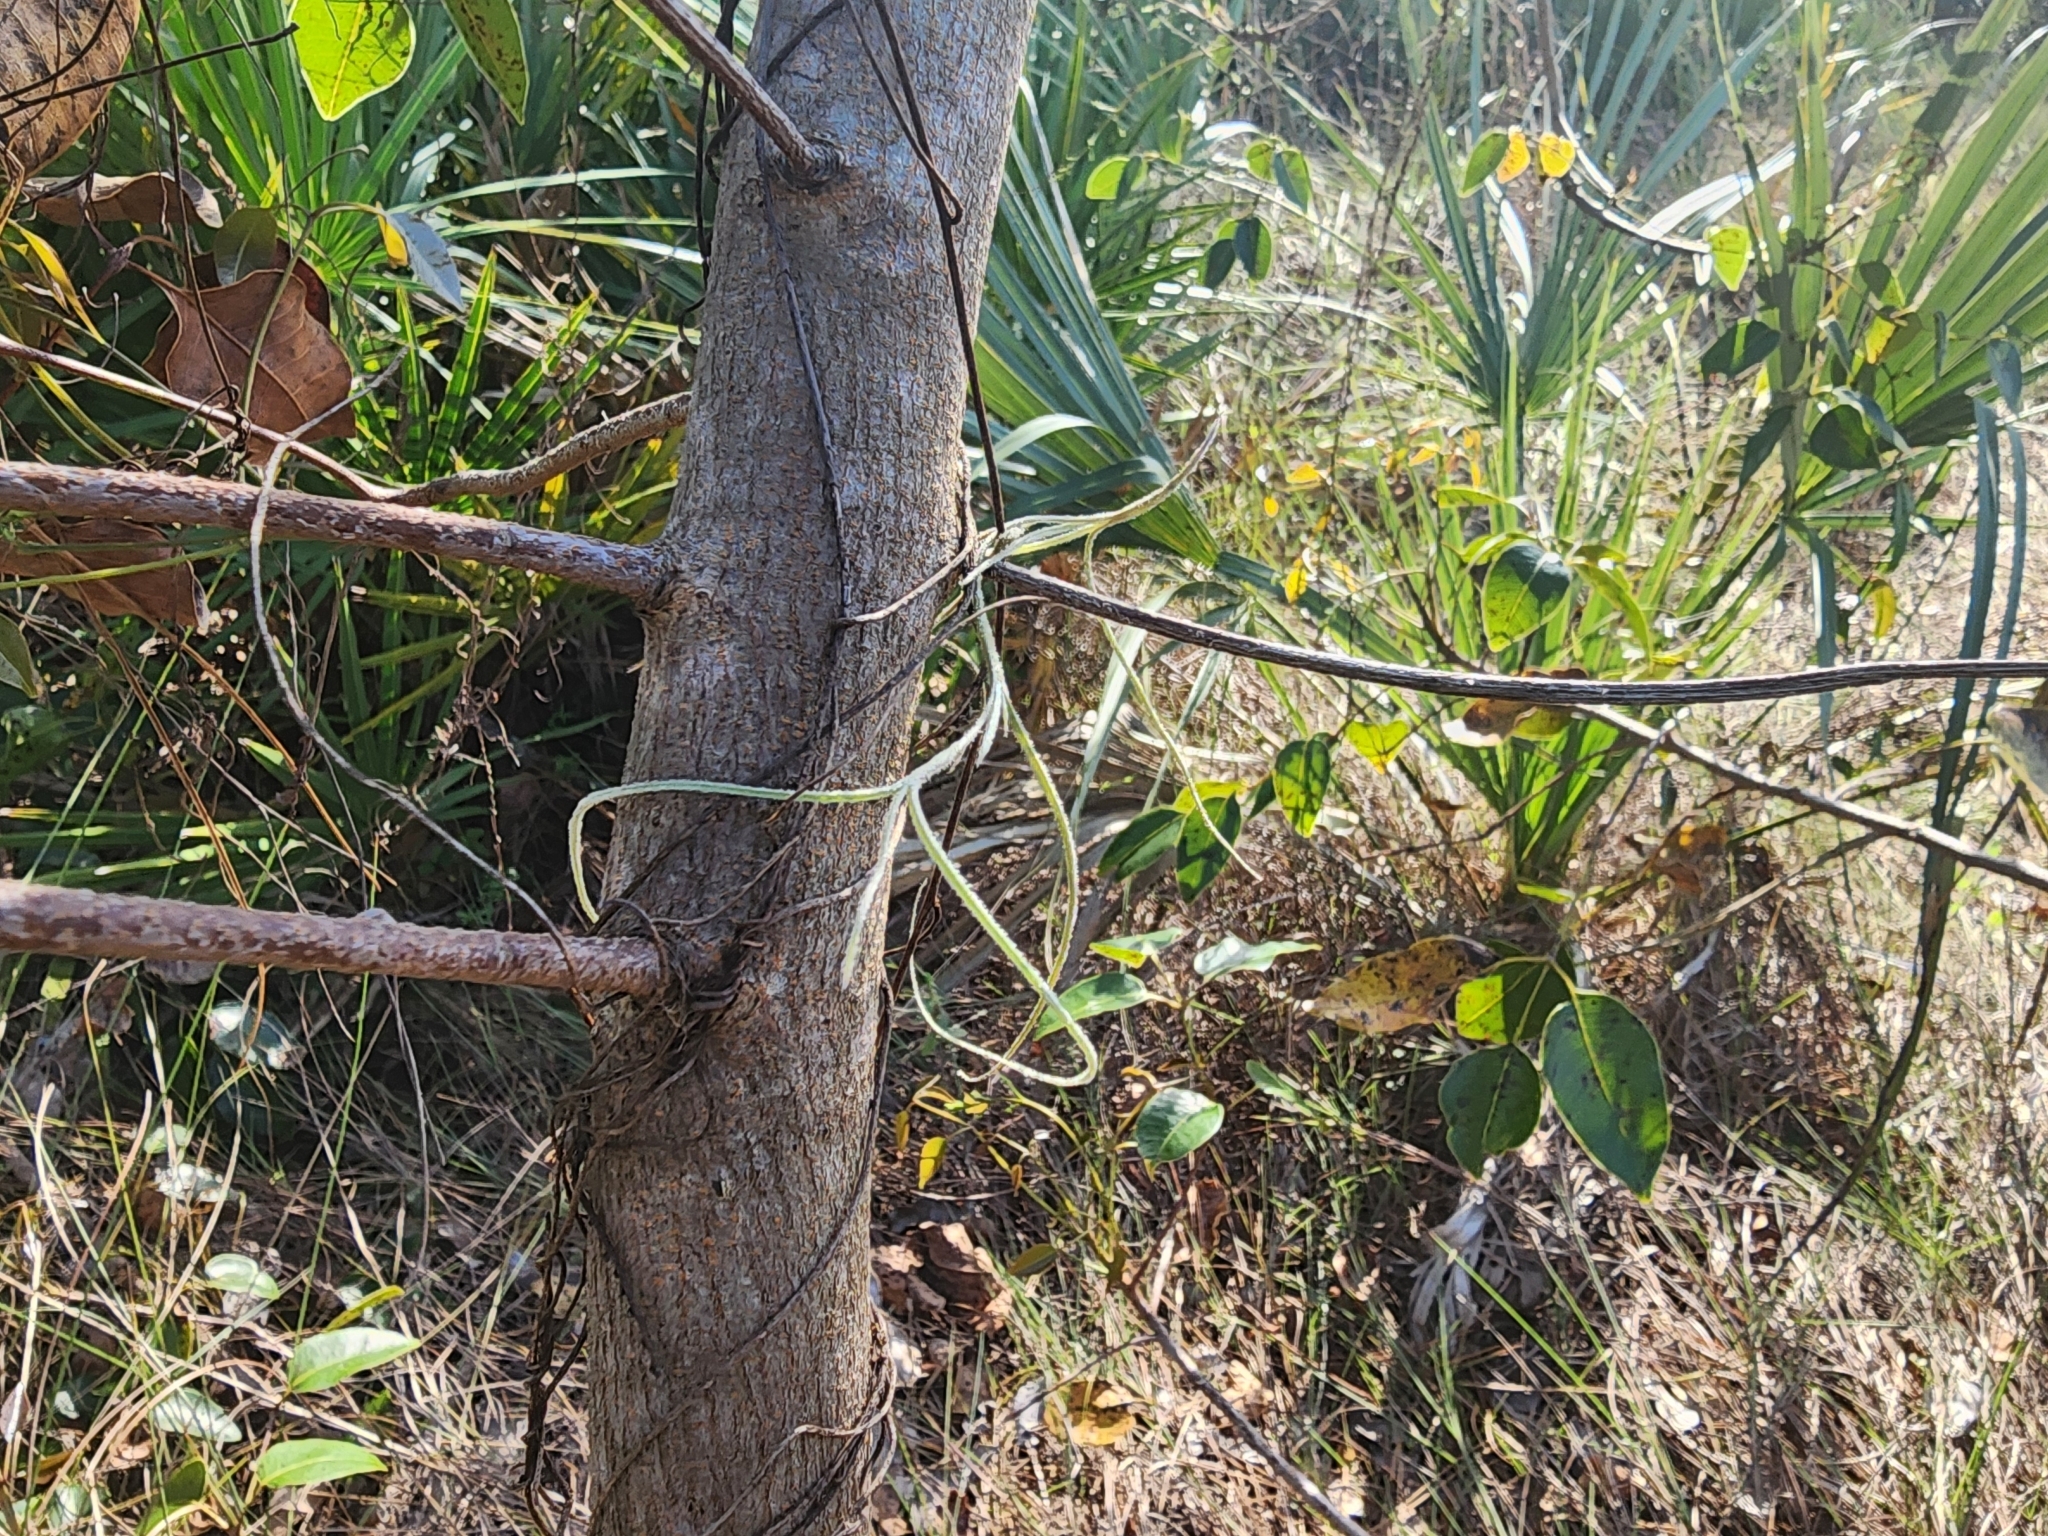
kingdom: Plantae
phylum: Tracheophyta
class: Liliopsida
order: Poales
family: Bromeliaceae
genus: Tillandsia
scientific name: Tillandsia usneoides
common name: Spanish moss
